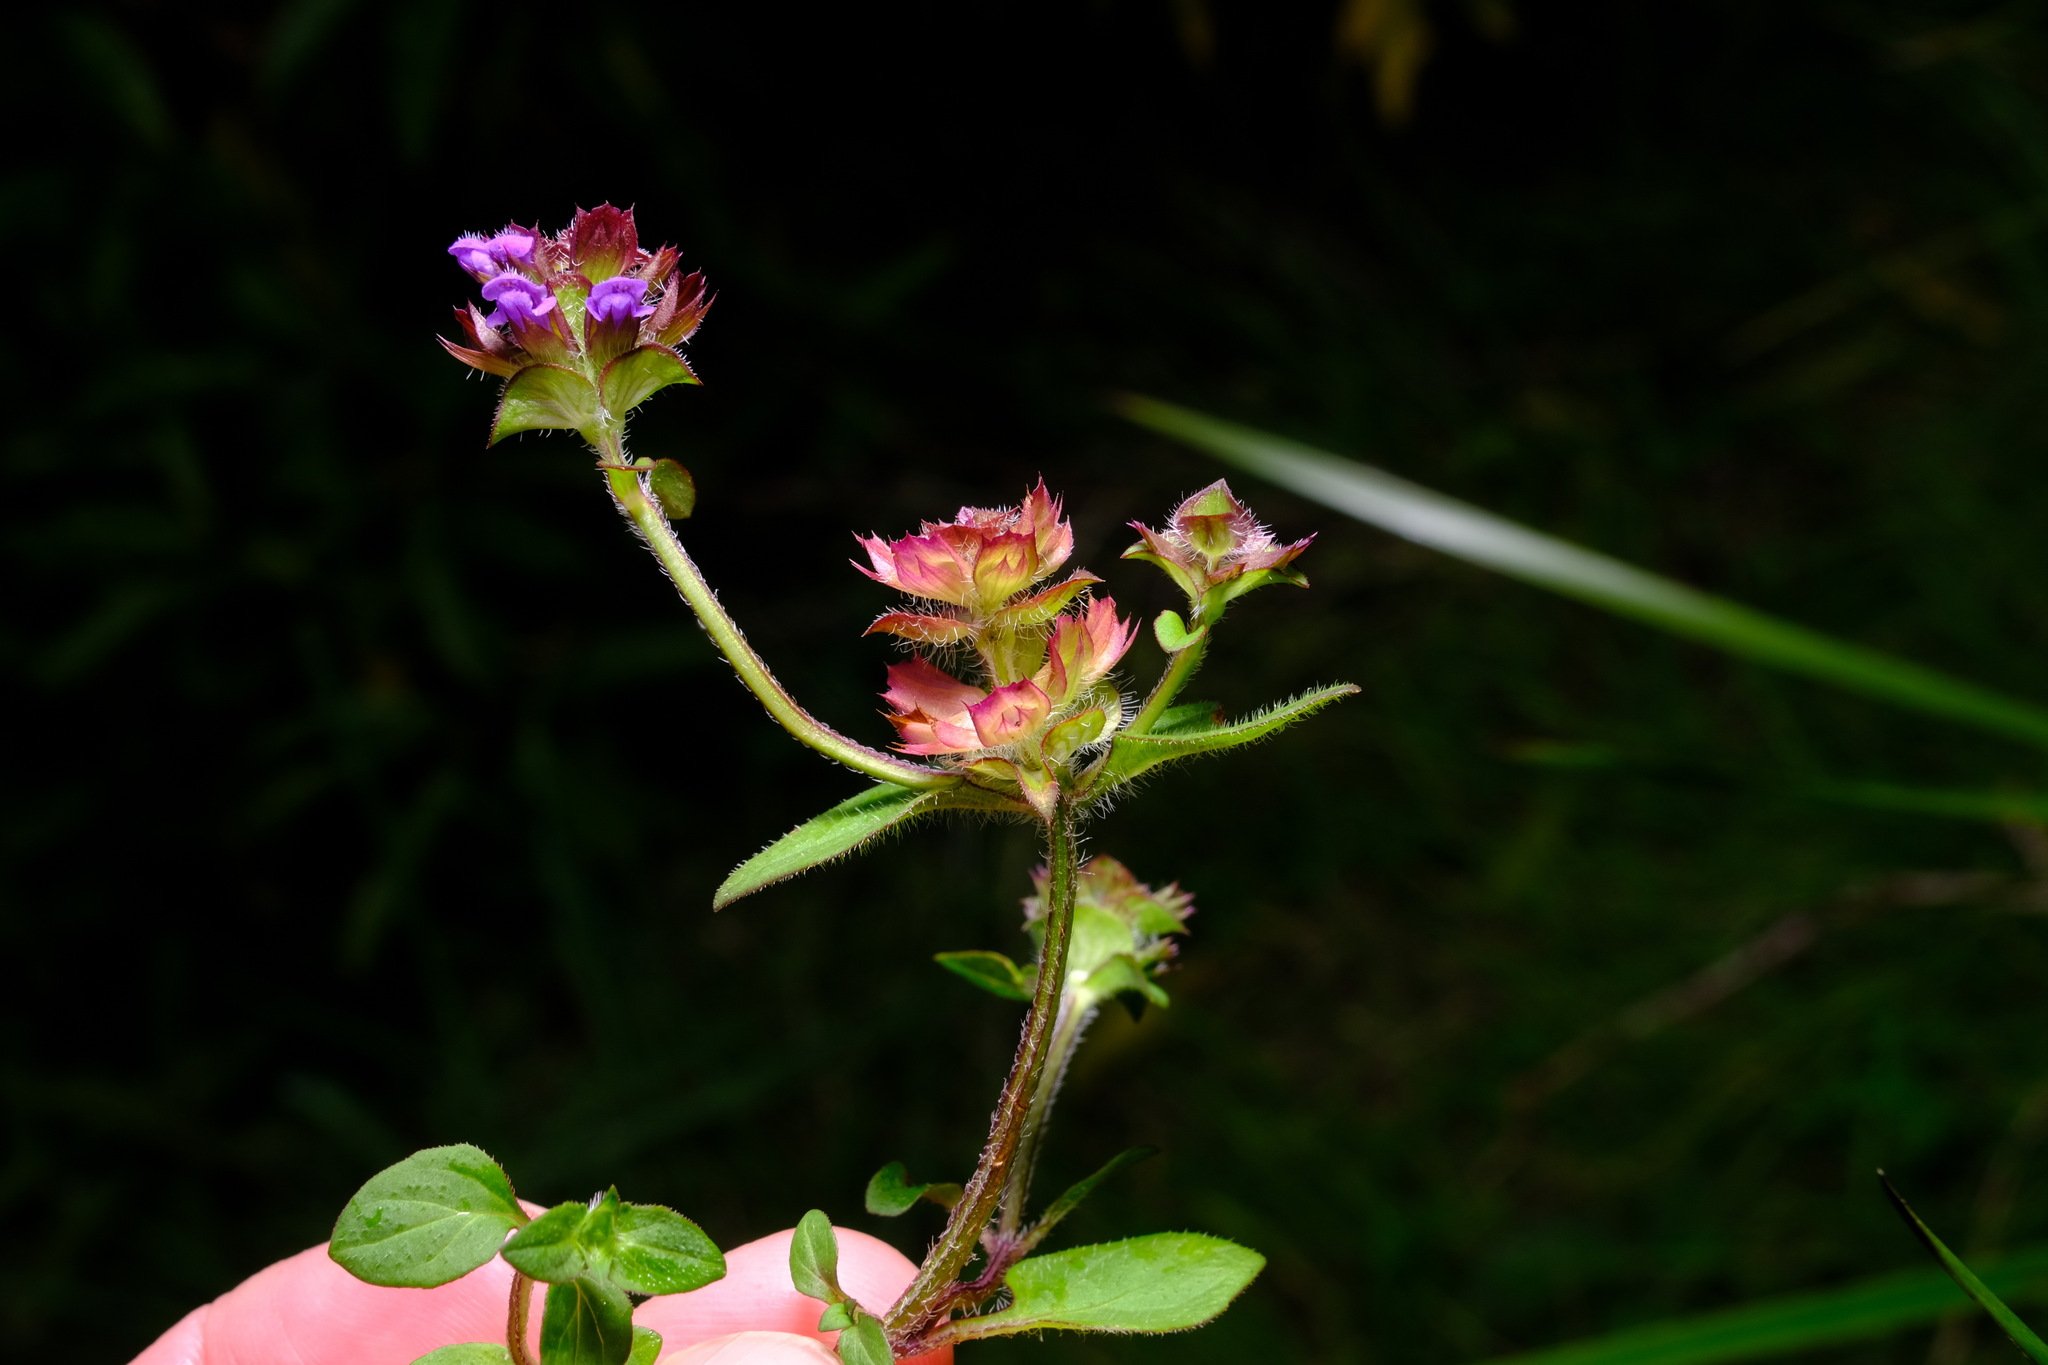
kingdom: Plantae
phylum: Tracheophyta
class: Magnoliopsida
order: Lamiales
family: Lamiaceae
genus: Prunella
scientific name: Prunella vulgaris
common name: Heal-all
